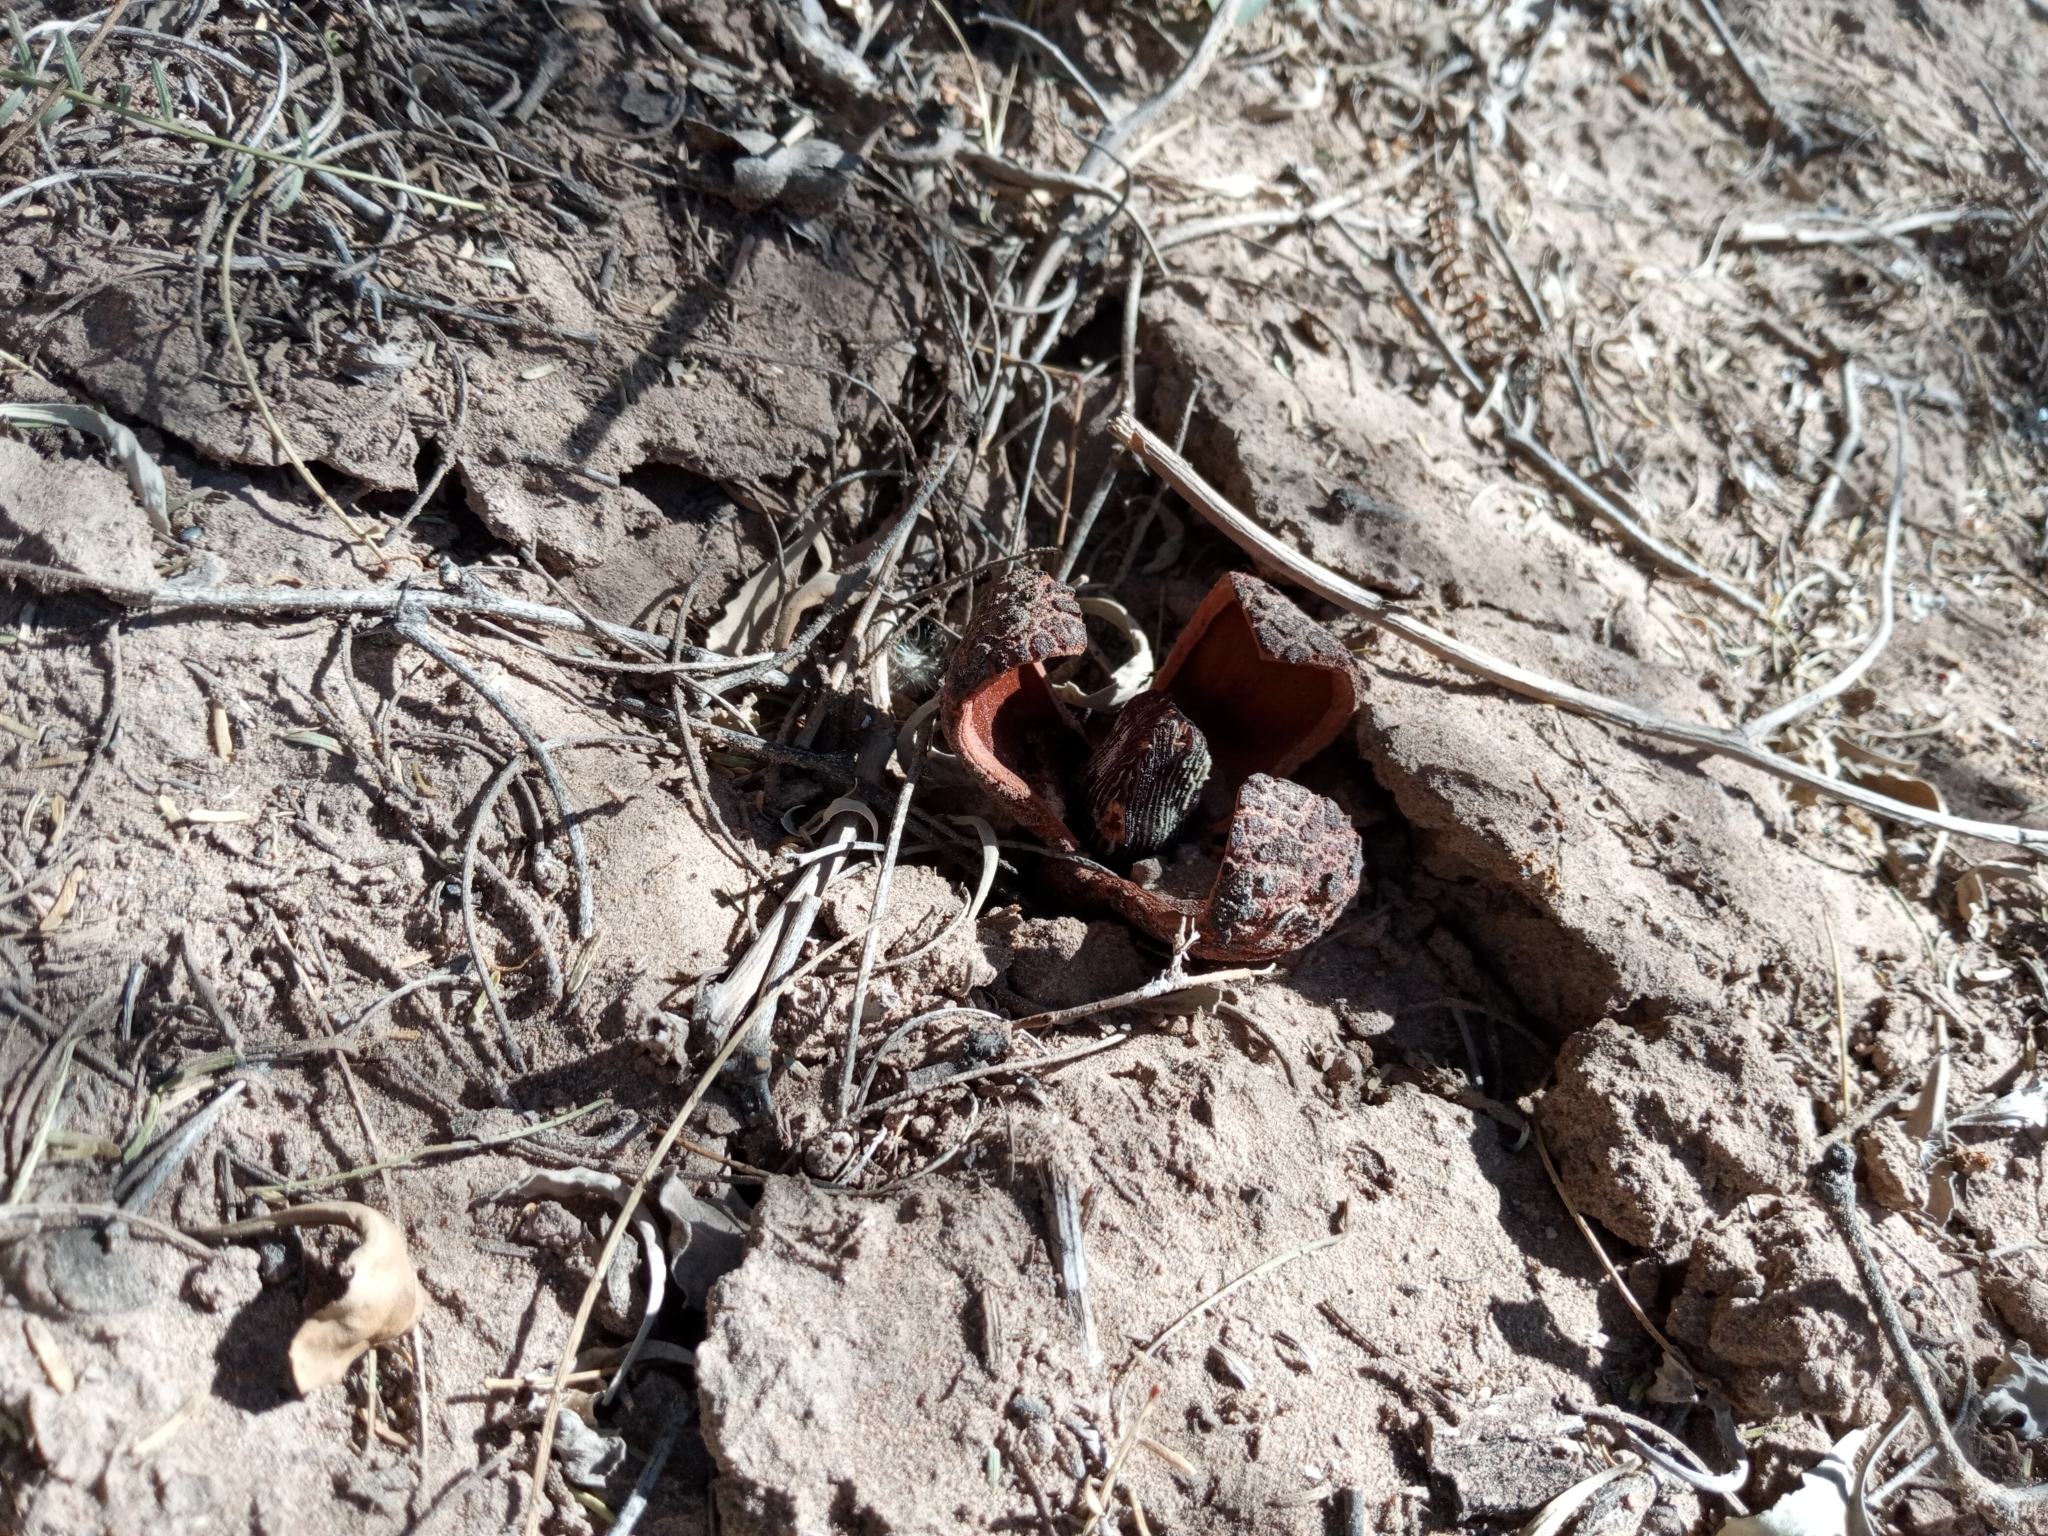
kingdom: Plantae
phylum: Tracheophyta
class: Magnoliopsida
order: Piperales
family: Hydnoraceae
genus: Prosopanche
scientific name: Prosopanche americana
